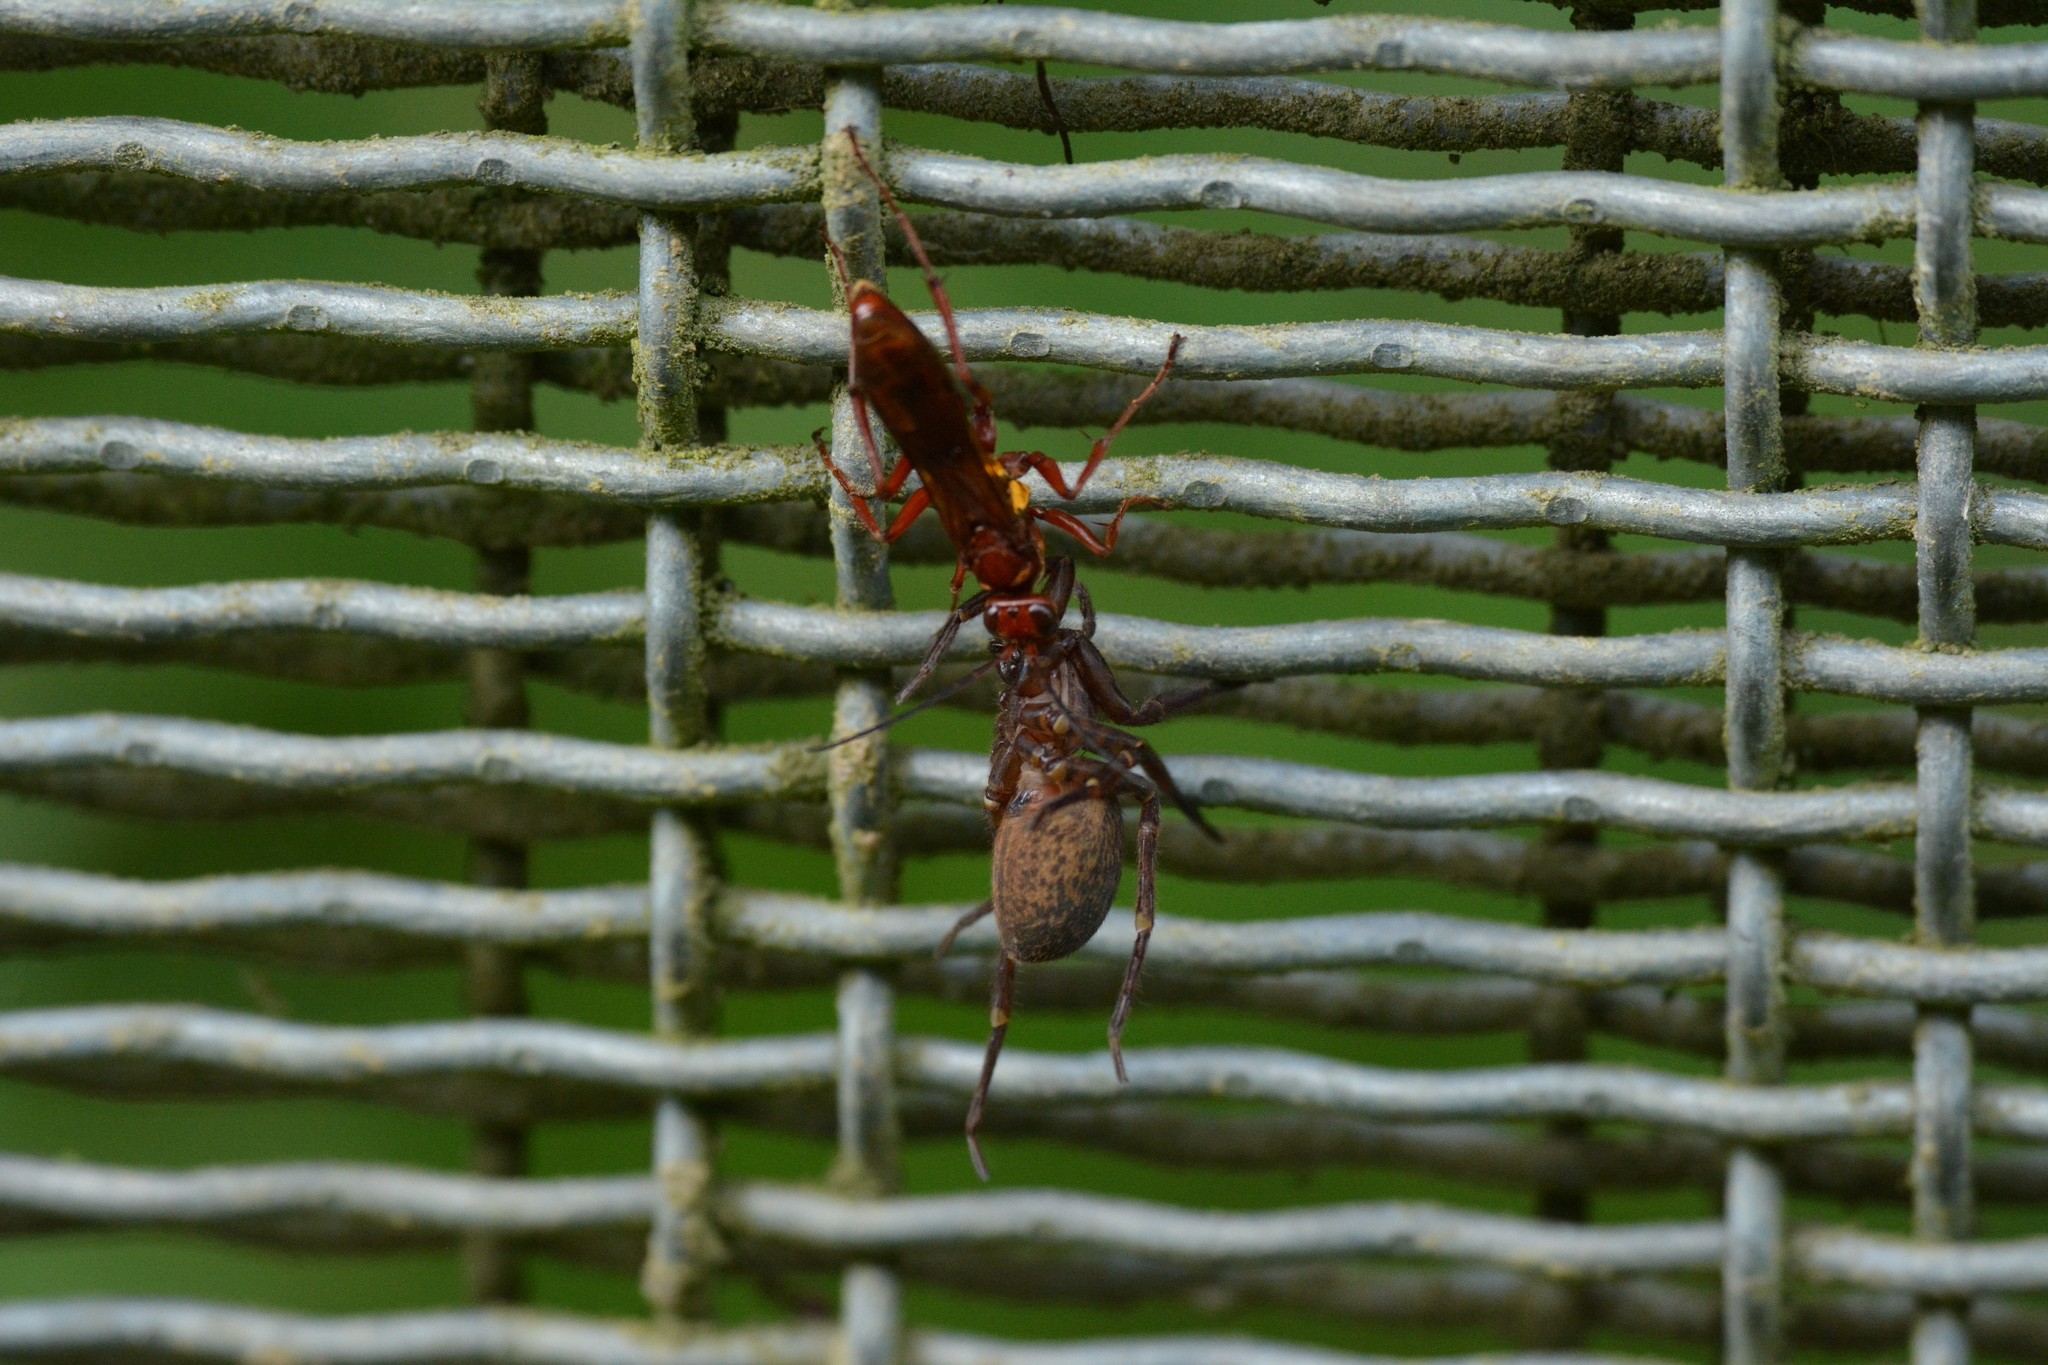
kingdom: Animalia
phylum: Arthropoda
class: Insecta
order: Hymenoptera
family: Pompilidae
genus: Sphictostethus
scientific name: Sphictostethus nitidus
